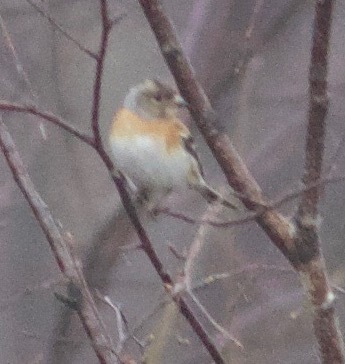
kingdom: Animalia
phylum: Chordata
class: Aves
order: Passeriformes
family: Fringillidae
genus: Fringilla
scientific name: Fringilla montifringilla
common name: Brambling
